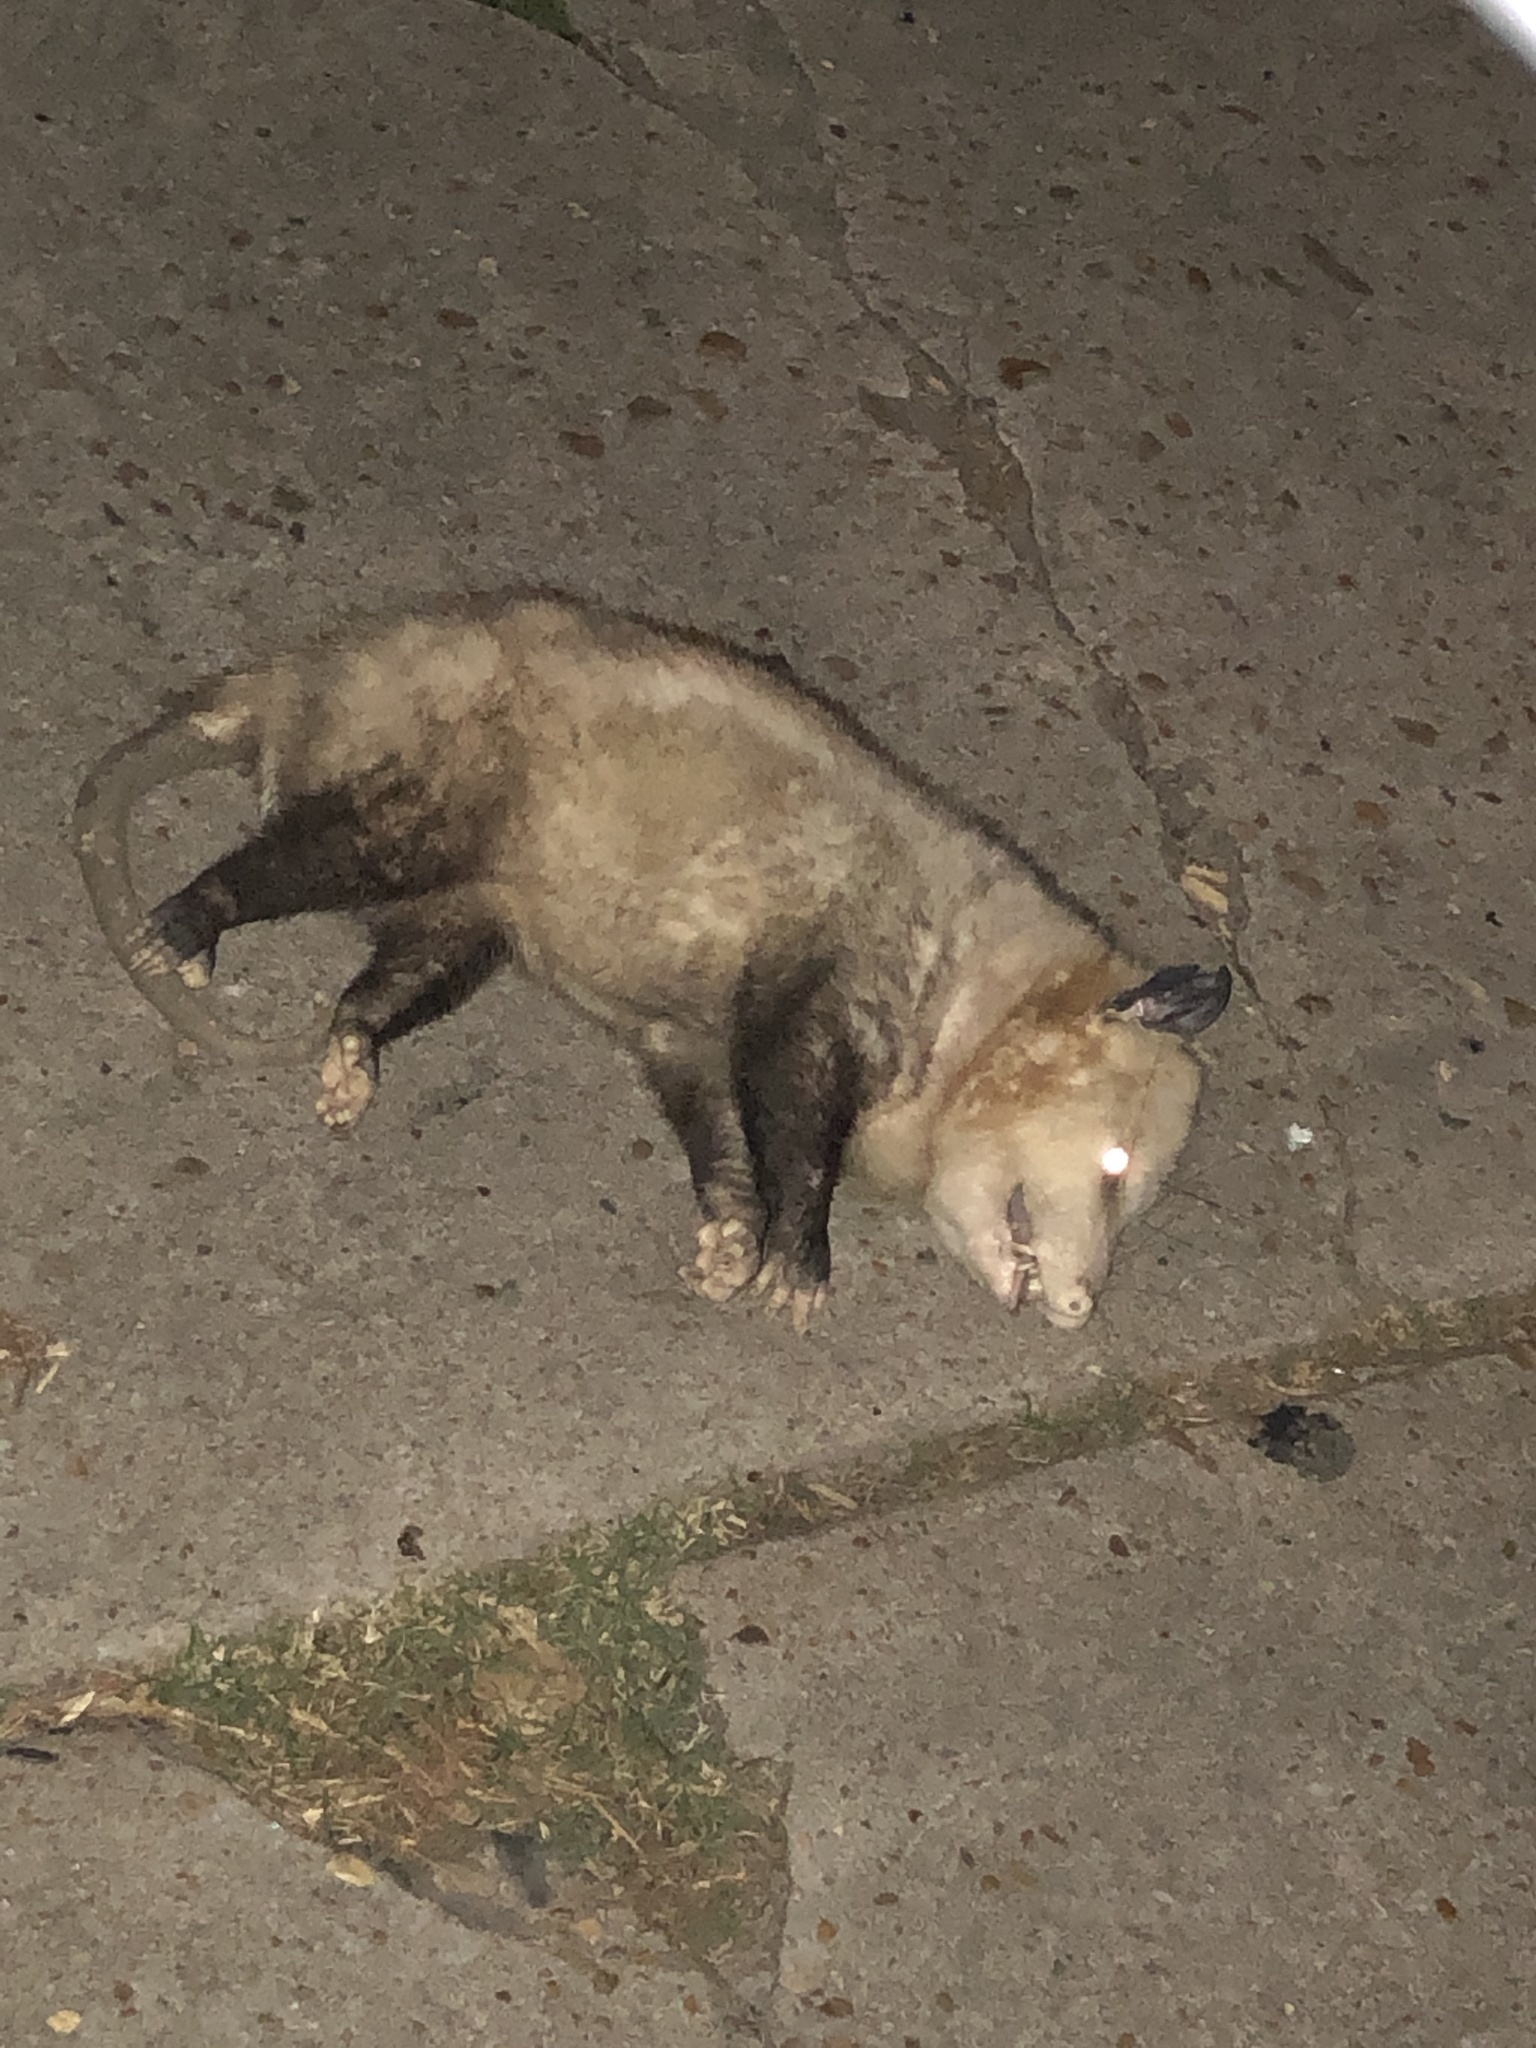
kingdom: Animalia
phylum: Chordata
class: Mammalia
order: Didelphimorphia
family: Didelphidae
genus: Didelphis
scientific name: Didelphis virginiana
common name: Virginia opossum
